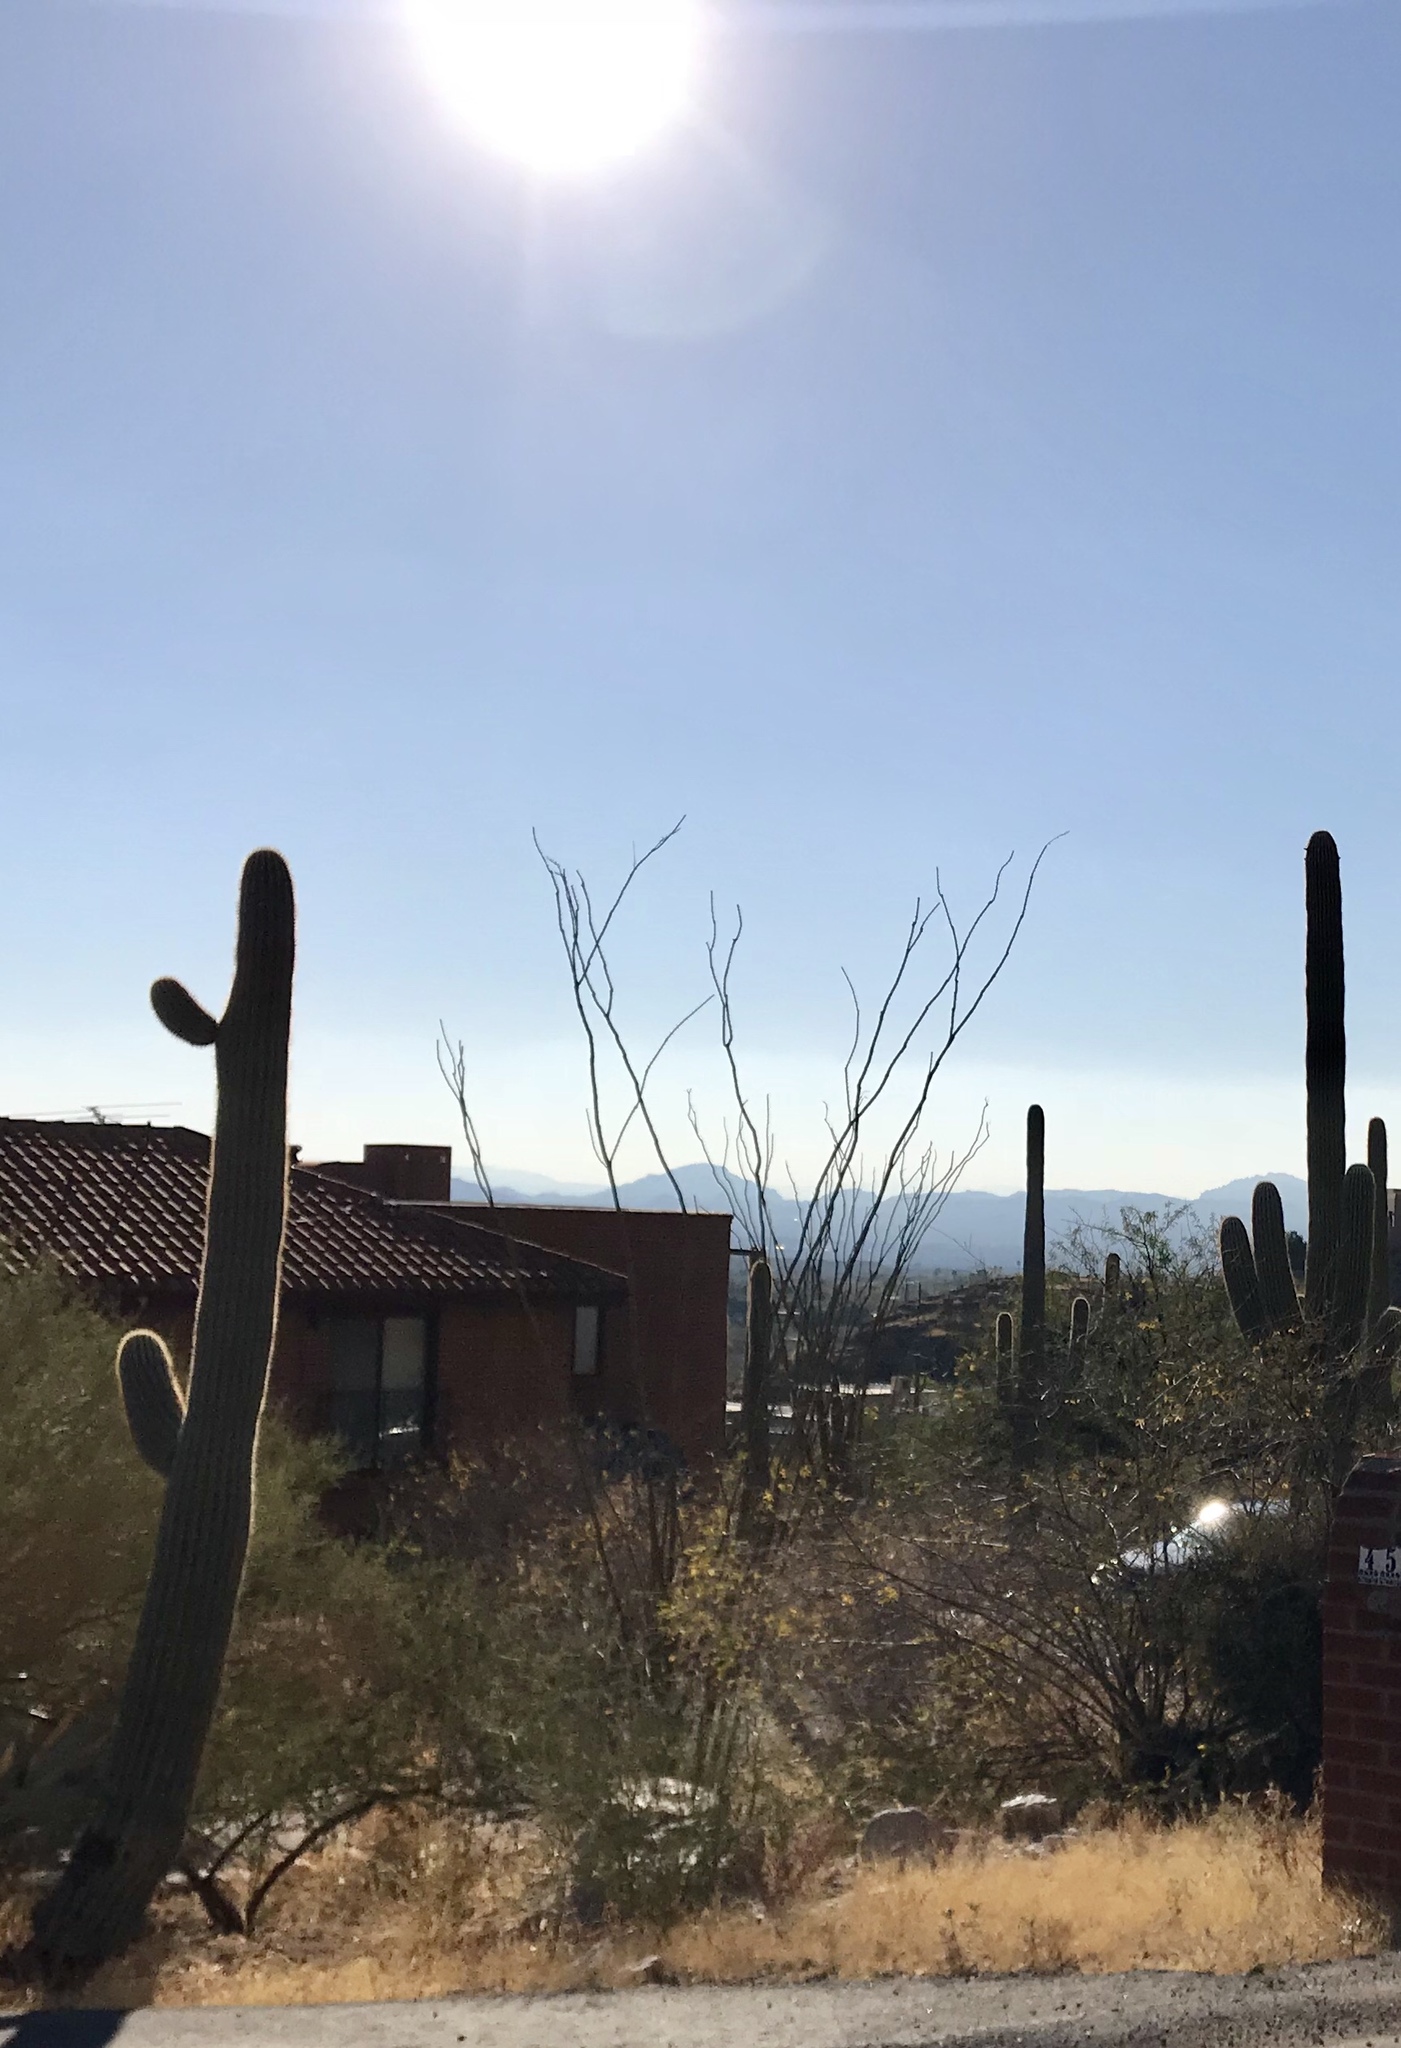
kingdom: Plantae
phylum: Tracheophyta
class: Magnoliopsida
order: Ericales
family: Fouquieriaceae
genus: Fouquieria
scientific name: Fouquieria splendens
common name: Vine-cactus
